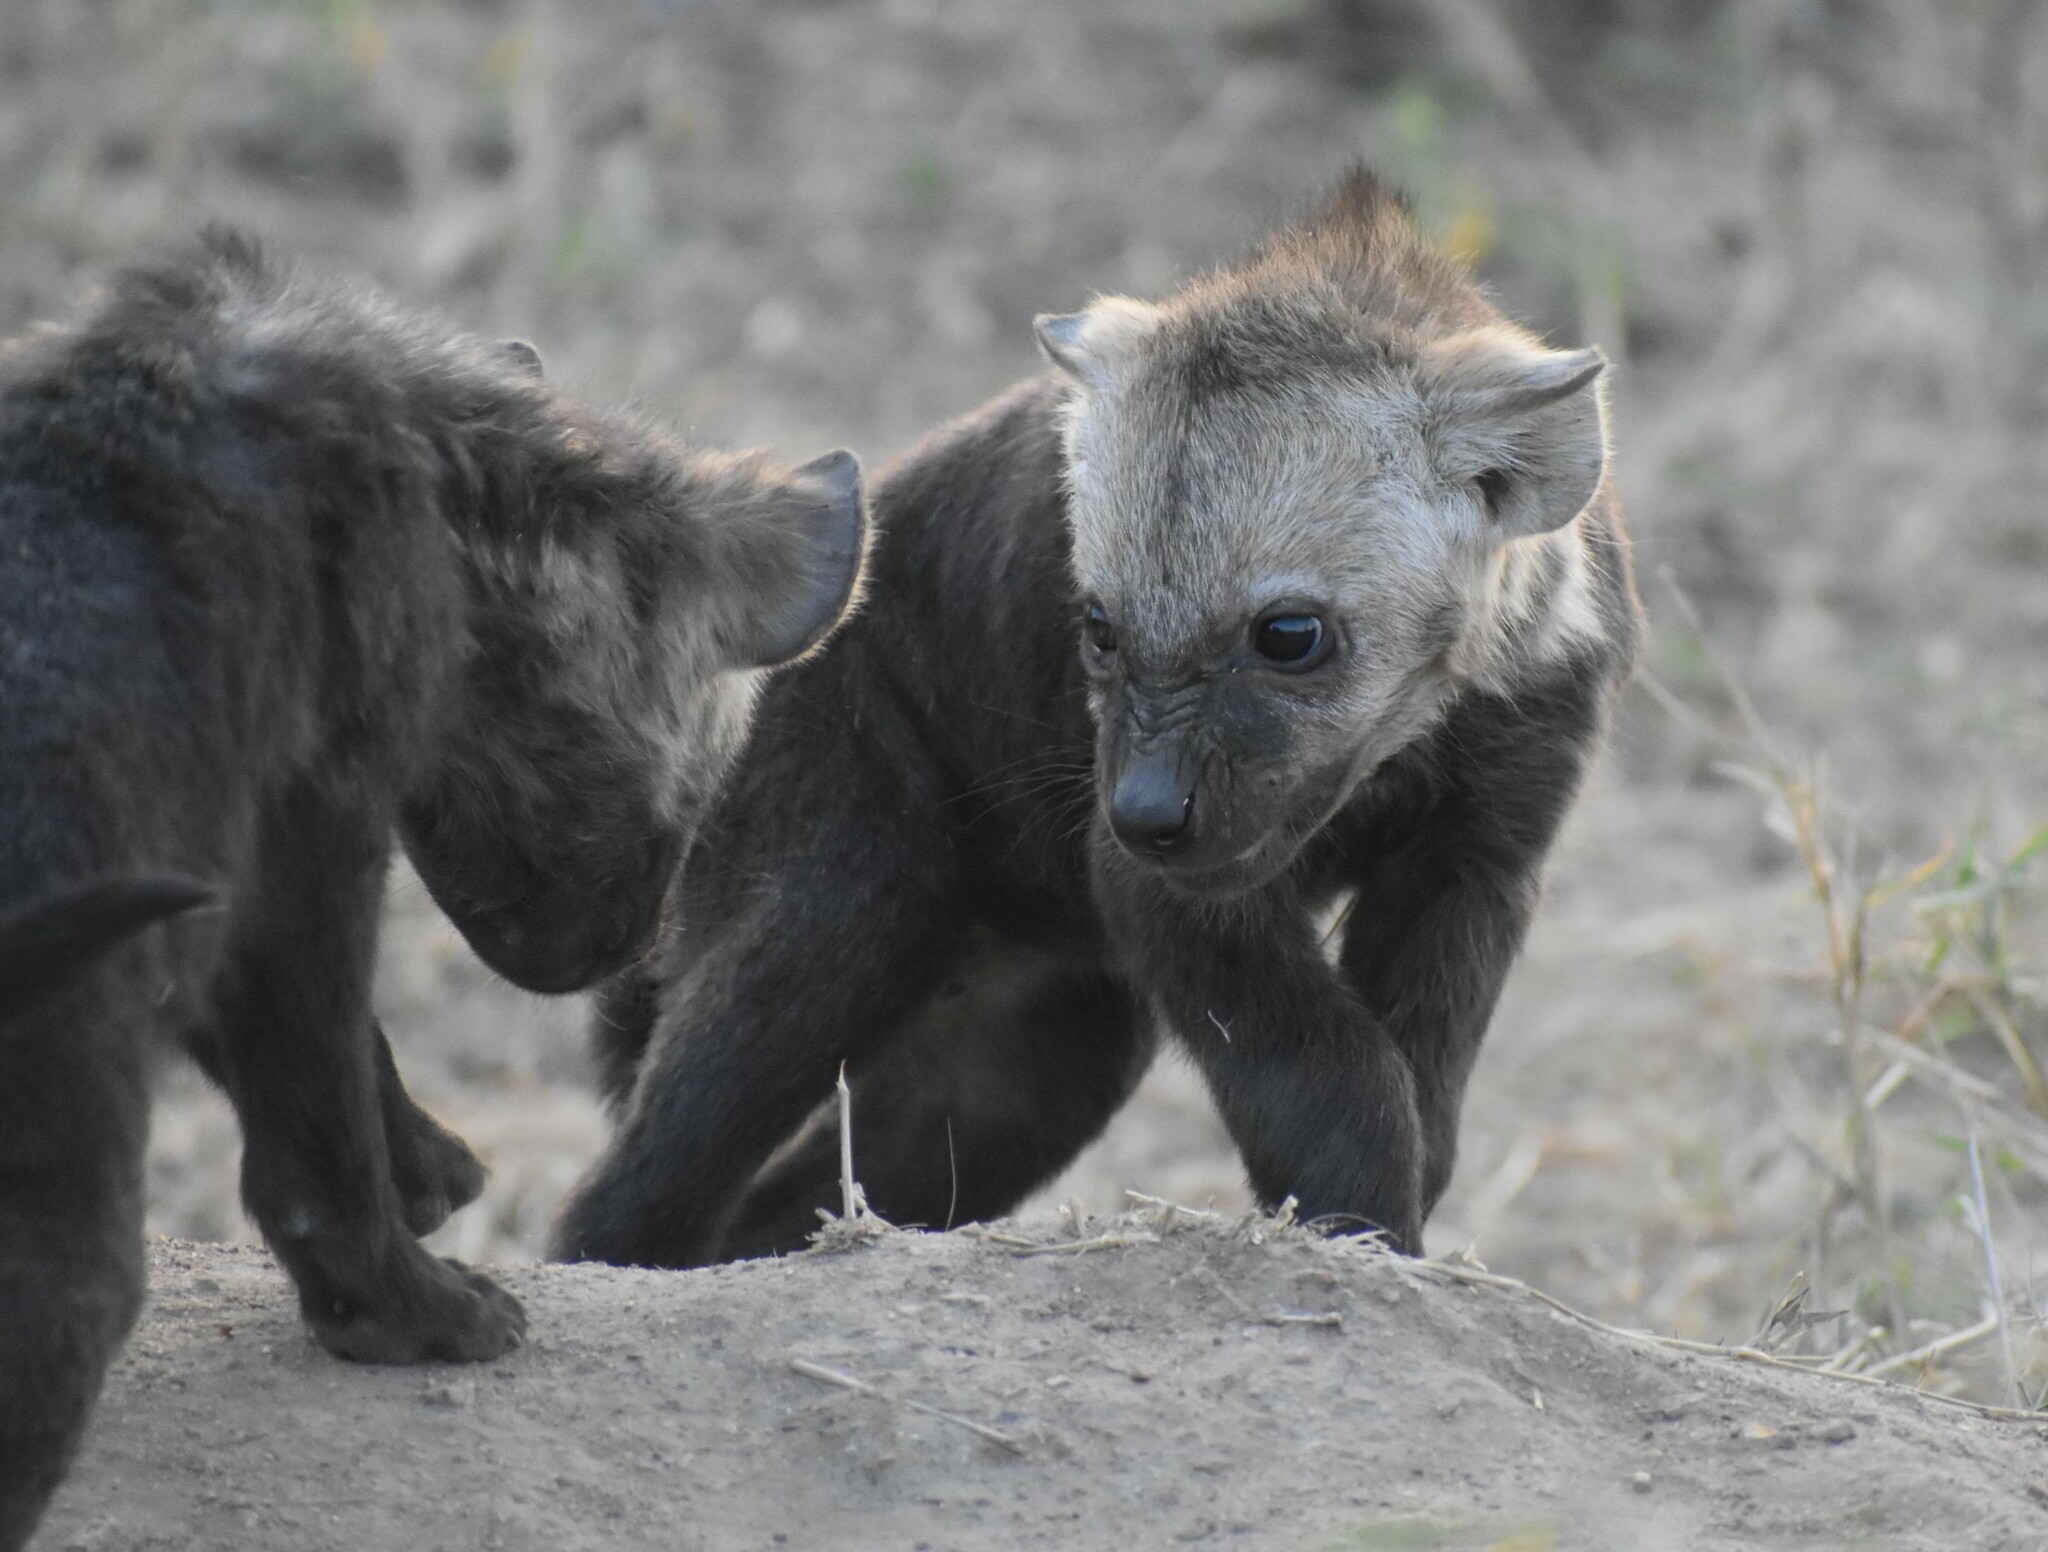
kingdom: Animalia
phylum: Chordata
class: Mammalia
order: Carnivora
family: Hyaenidae
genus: Crocuta
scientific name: Crocuta crocuta
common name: Spotted hyaena
